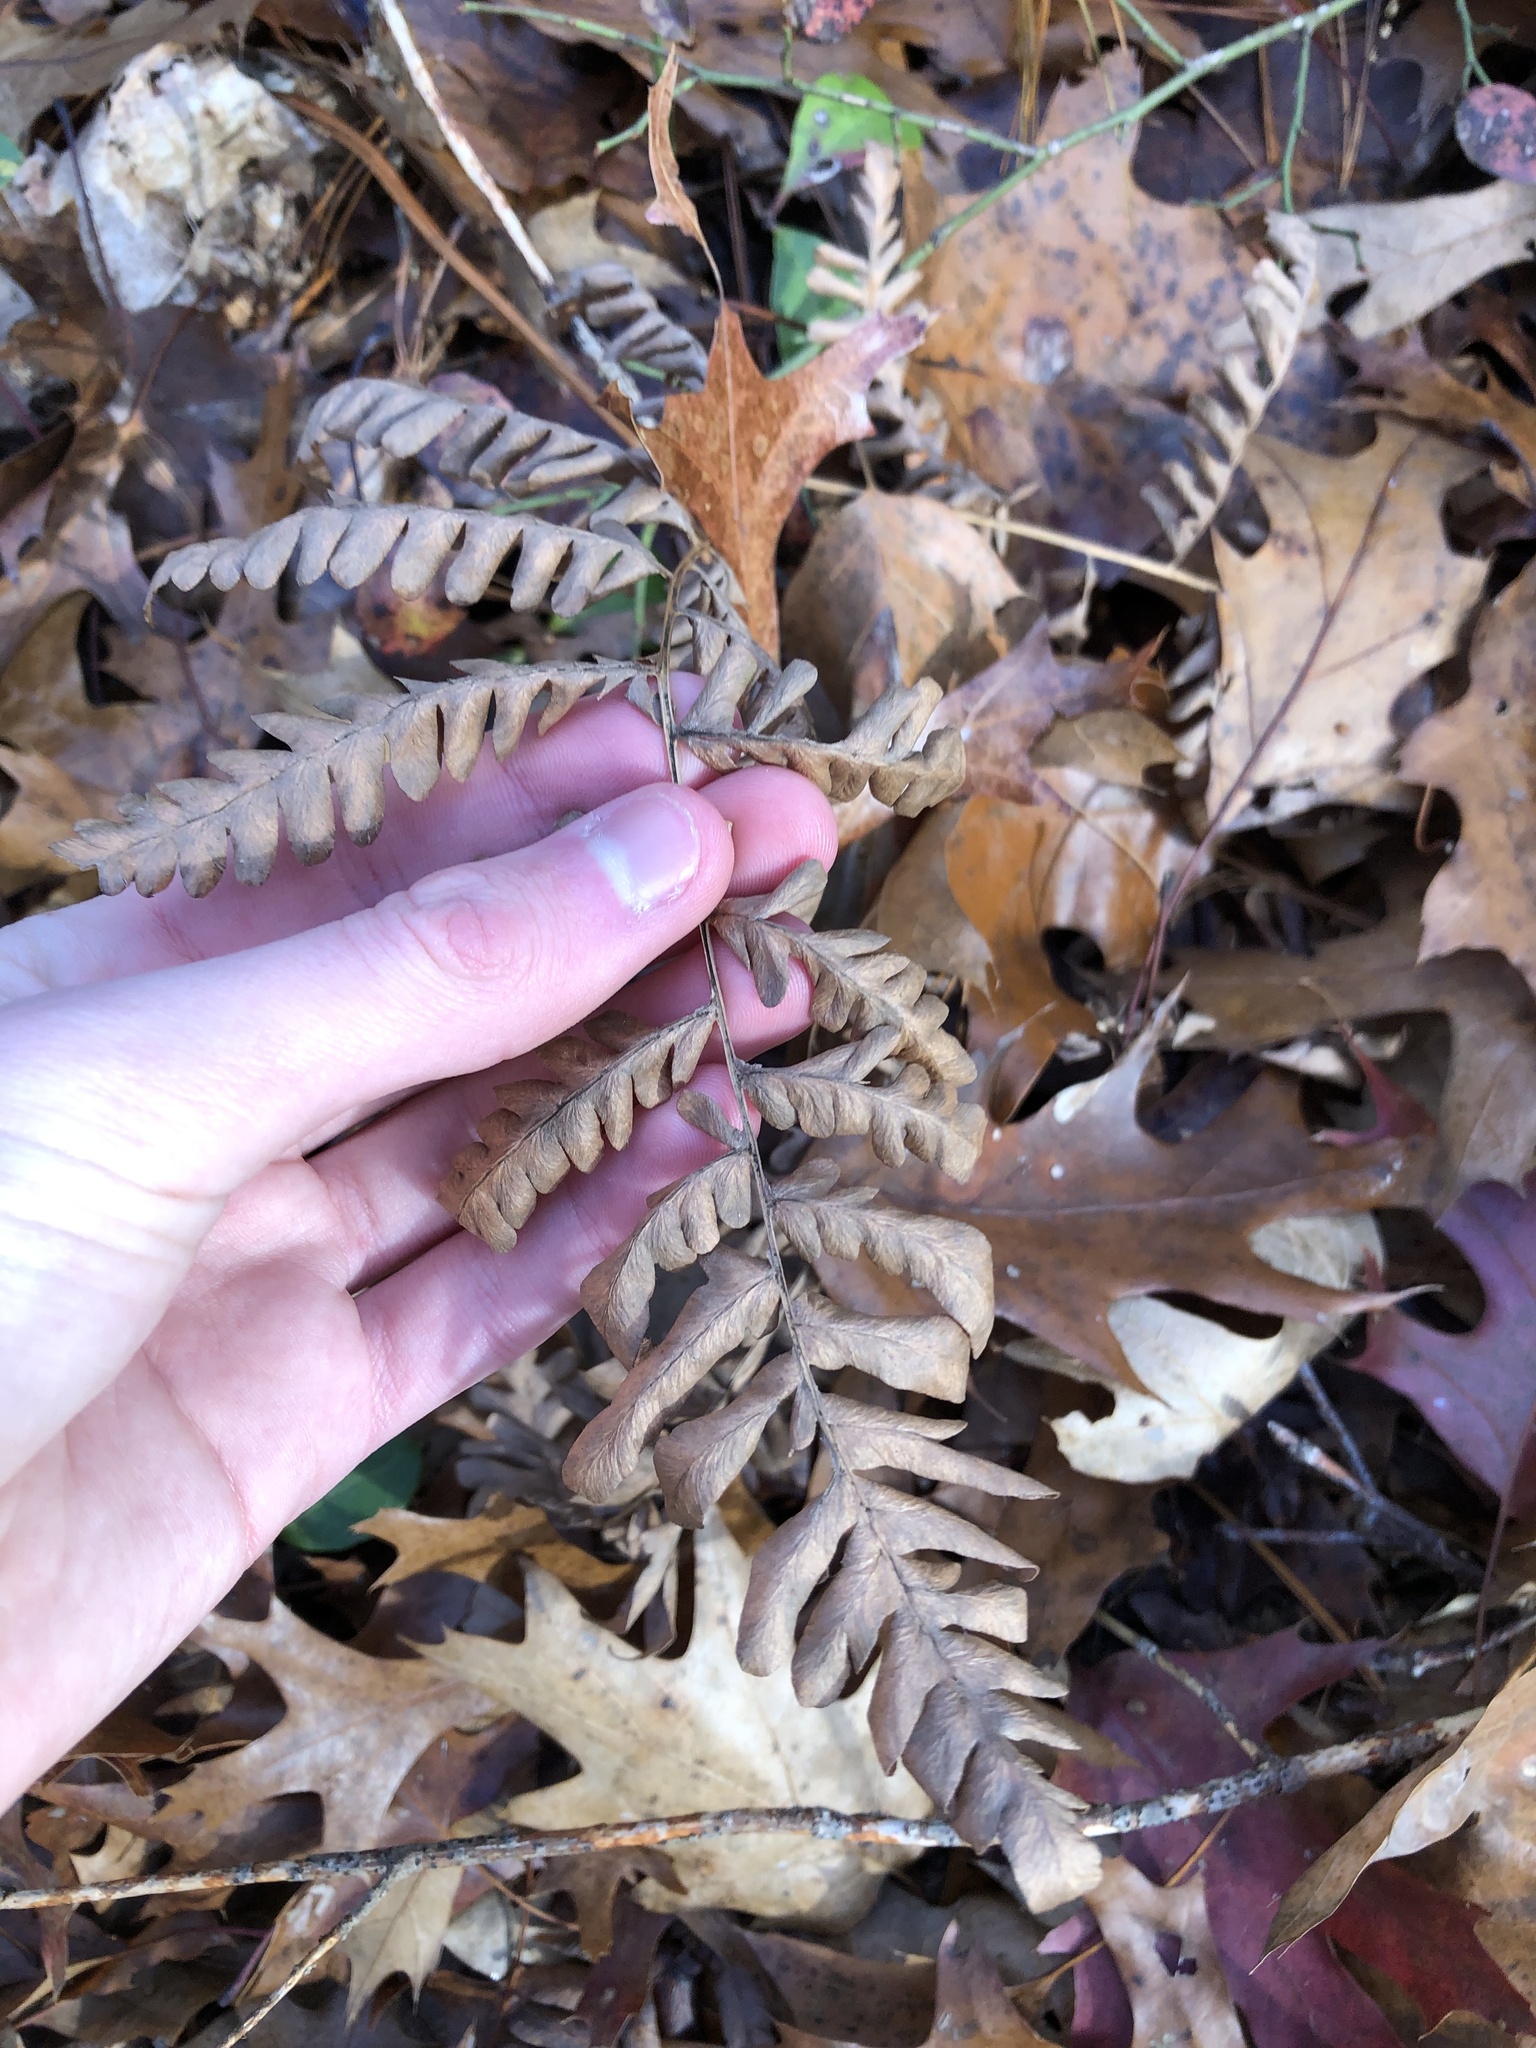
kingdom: Plantae
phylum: Tracheophyta
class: Polypodiopsida
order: Polypodiales
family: Dennstaedtiaceae
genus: Pteridium
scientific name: Pteridium aquilinum
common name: Bracken
